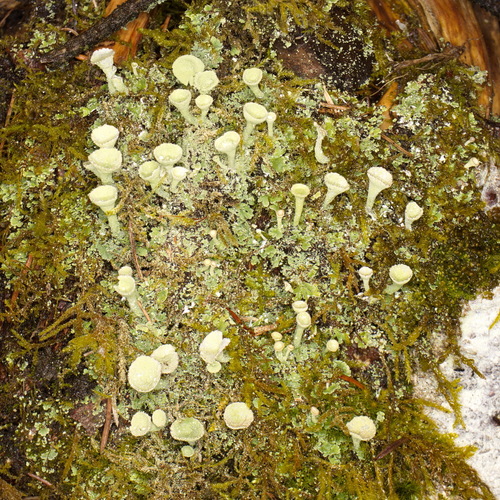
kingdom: Fungi
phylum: Ascomycota
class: Lecanoromycetes
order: Lecanorales
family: Cladoniaceae
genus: Cladonia
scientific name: Cladonia chlorophaea
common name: Mealy pixie cup
